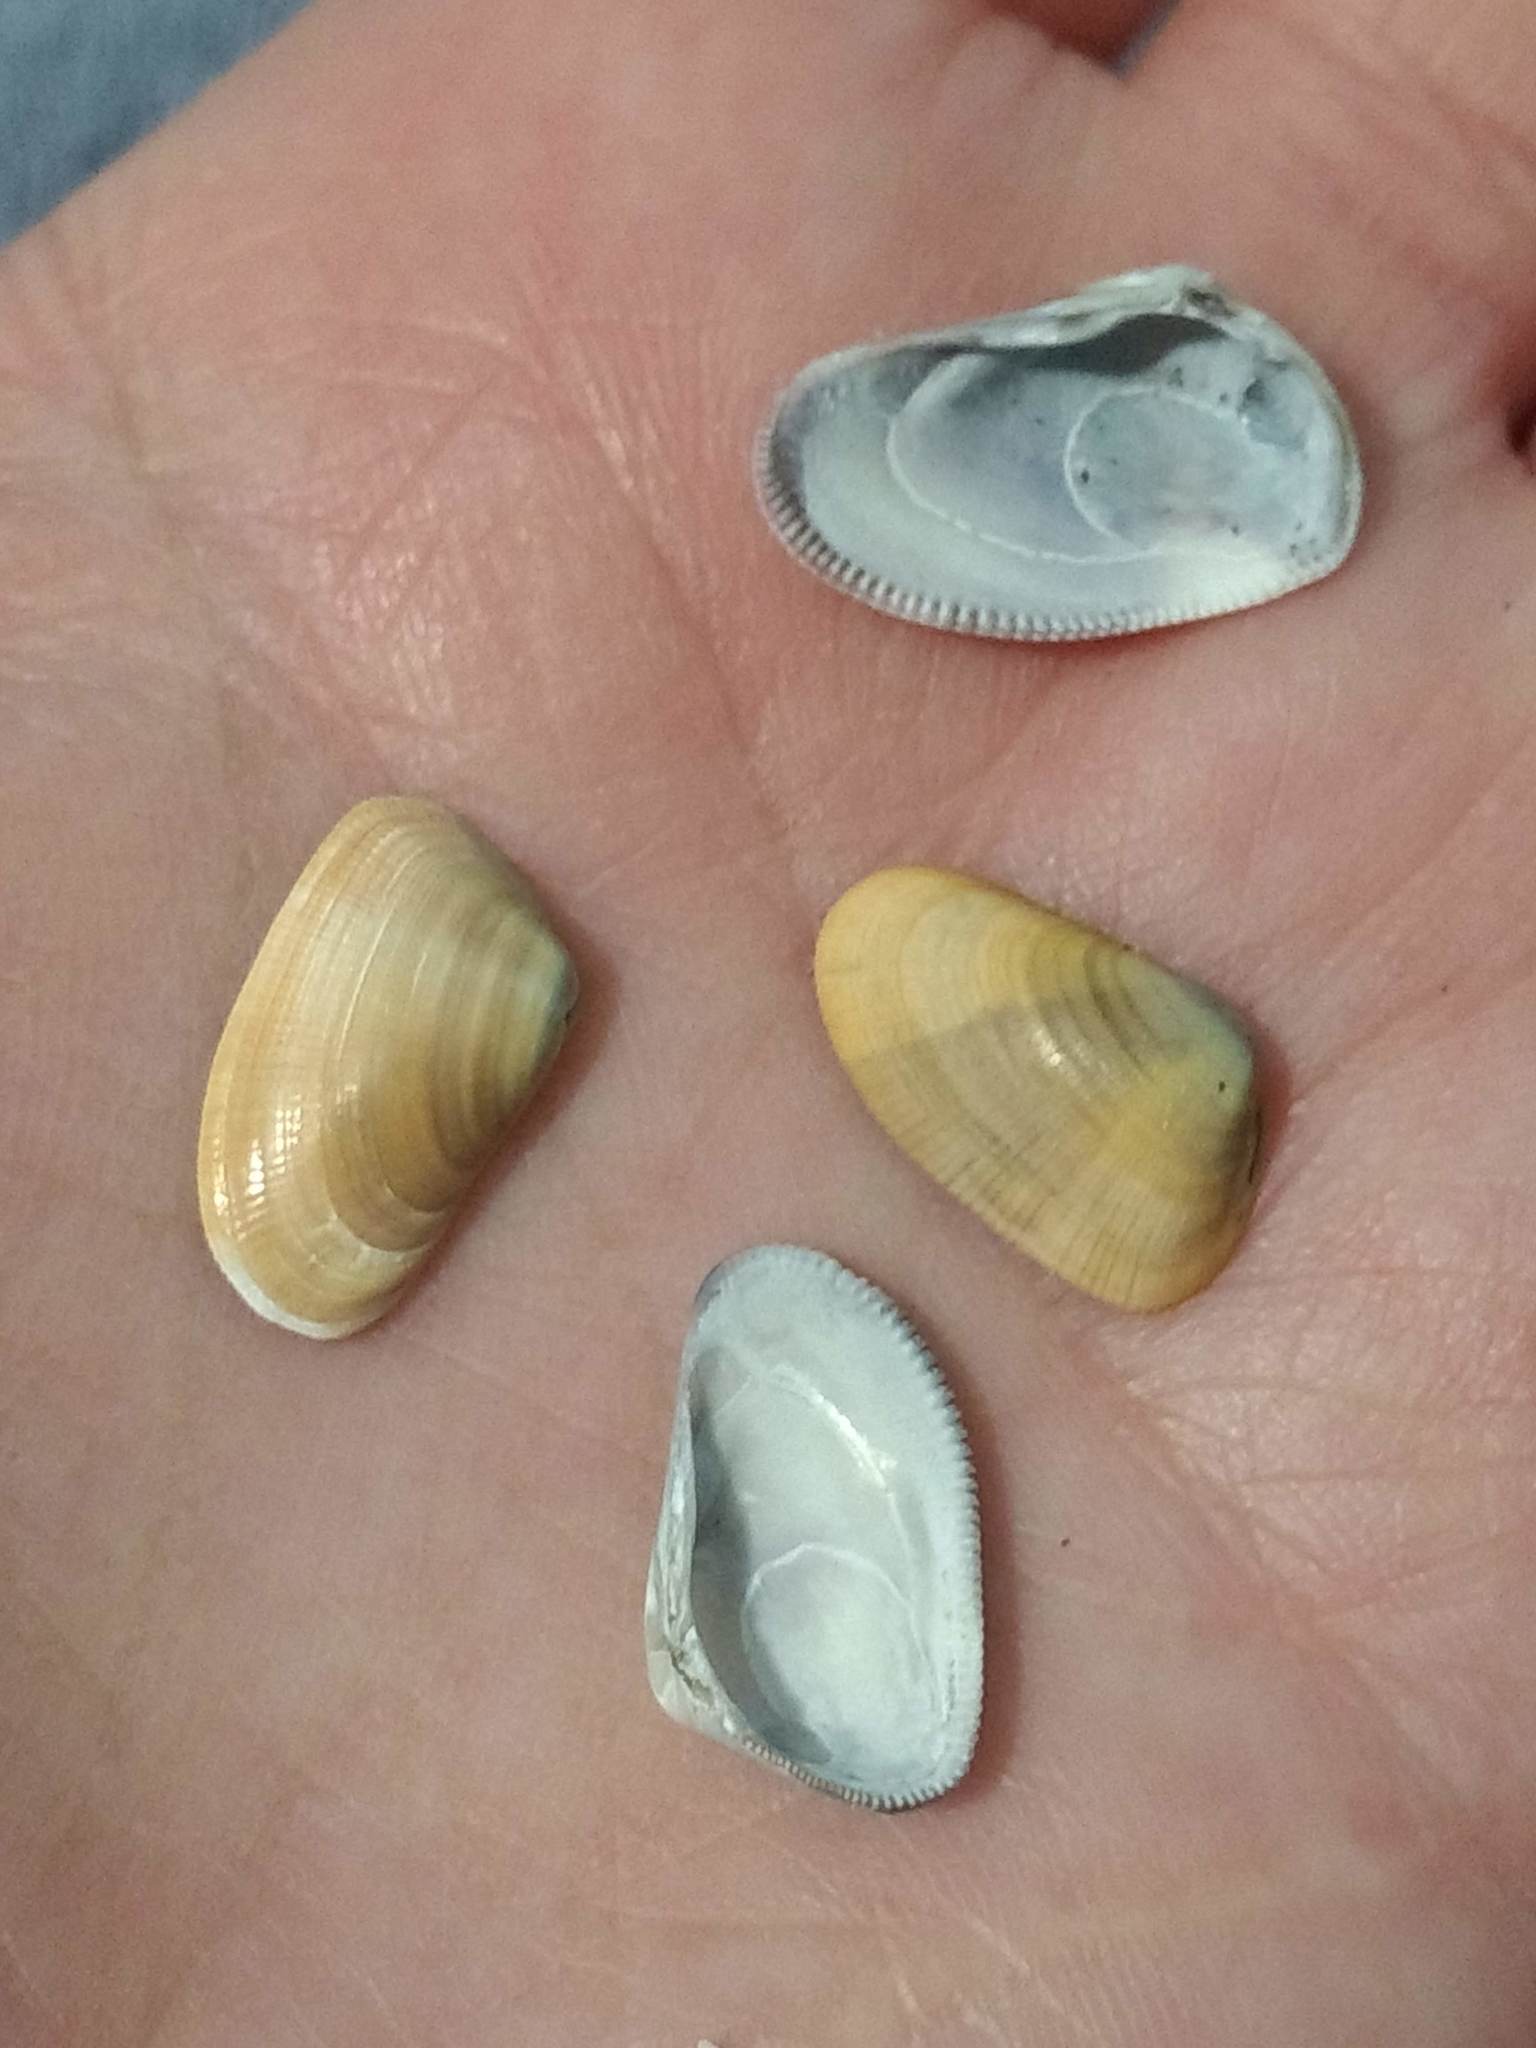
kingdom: Animalia
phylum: Mollusca
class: Bivalvia
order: Cardiida
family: Donacidae
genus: Donax
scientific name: Donax gouldii
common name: Gould beanclam
